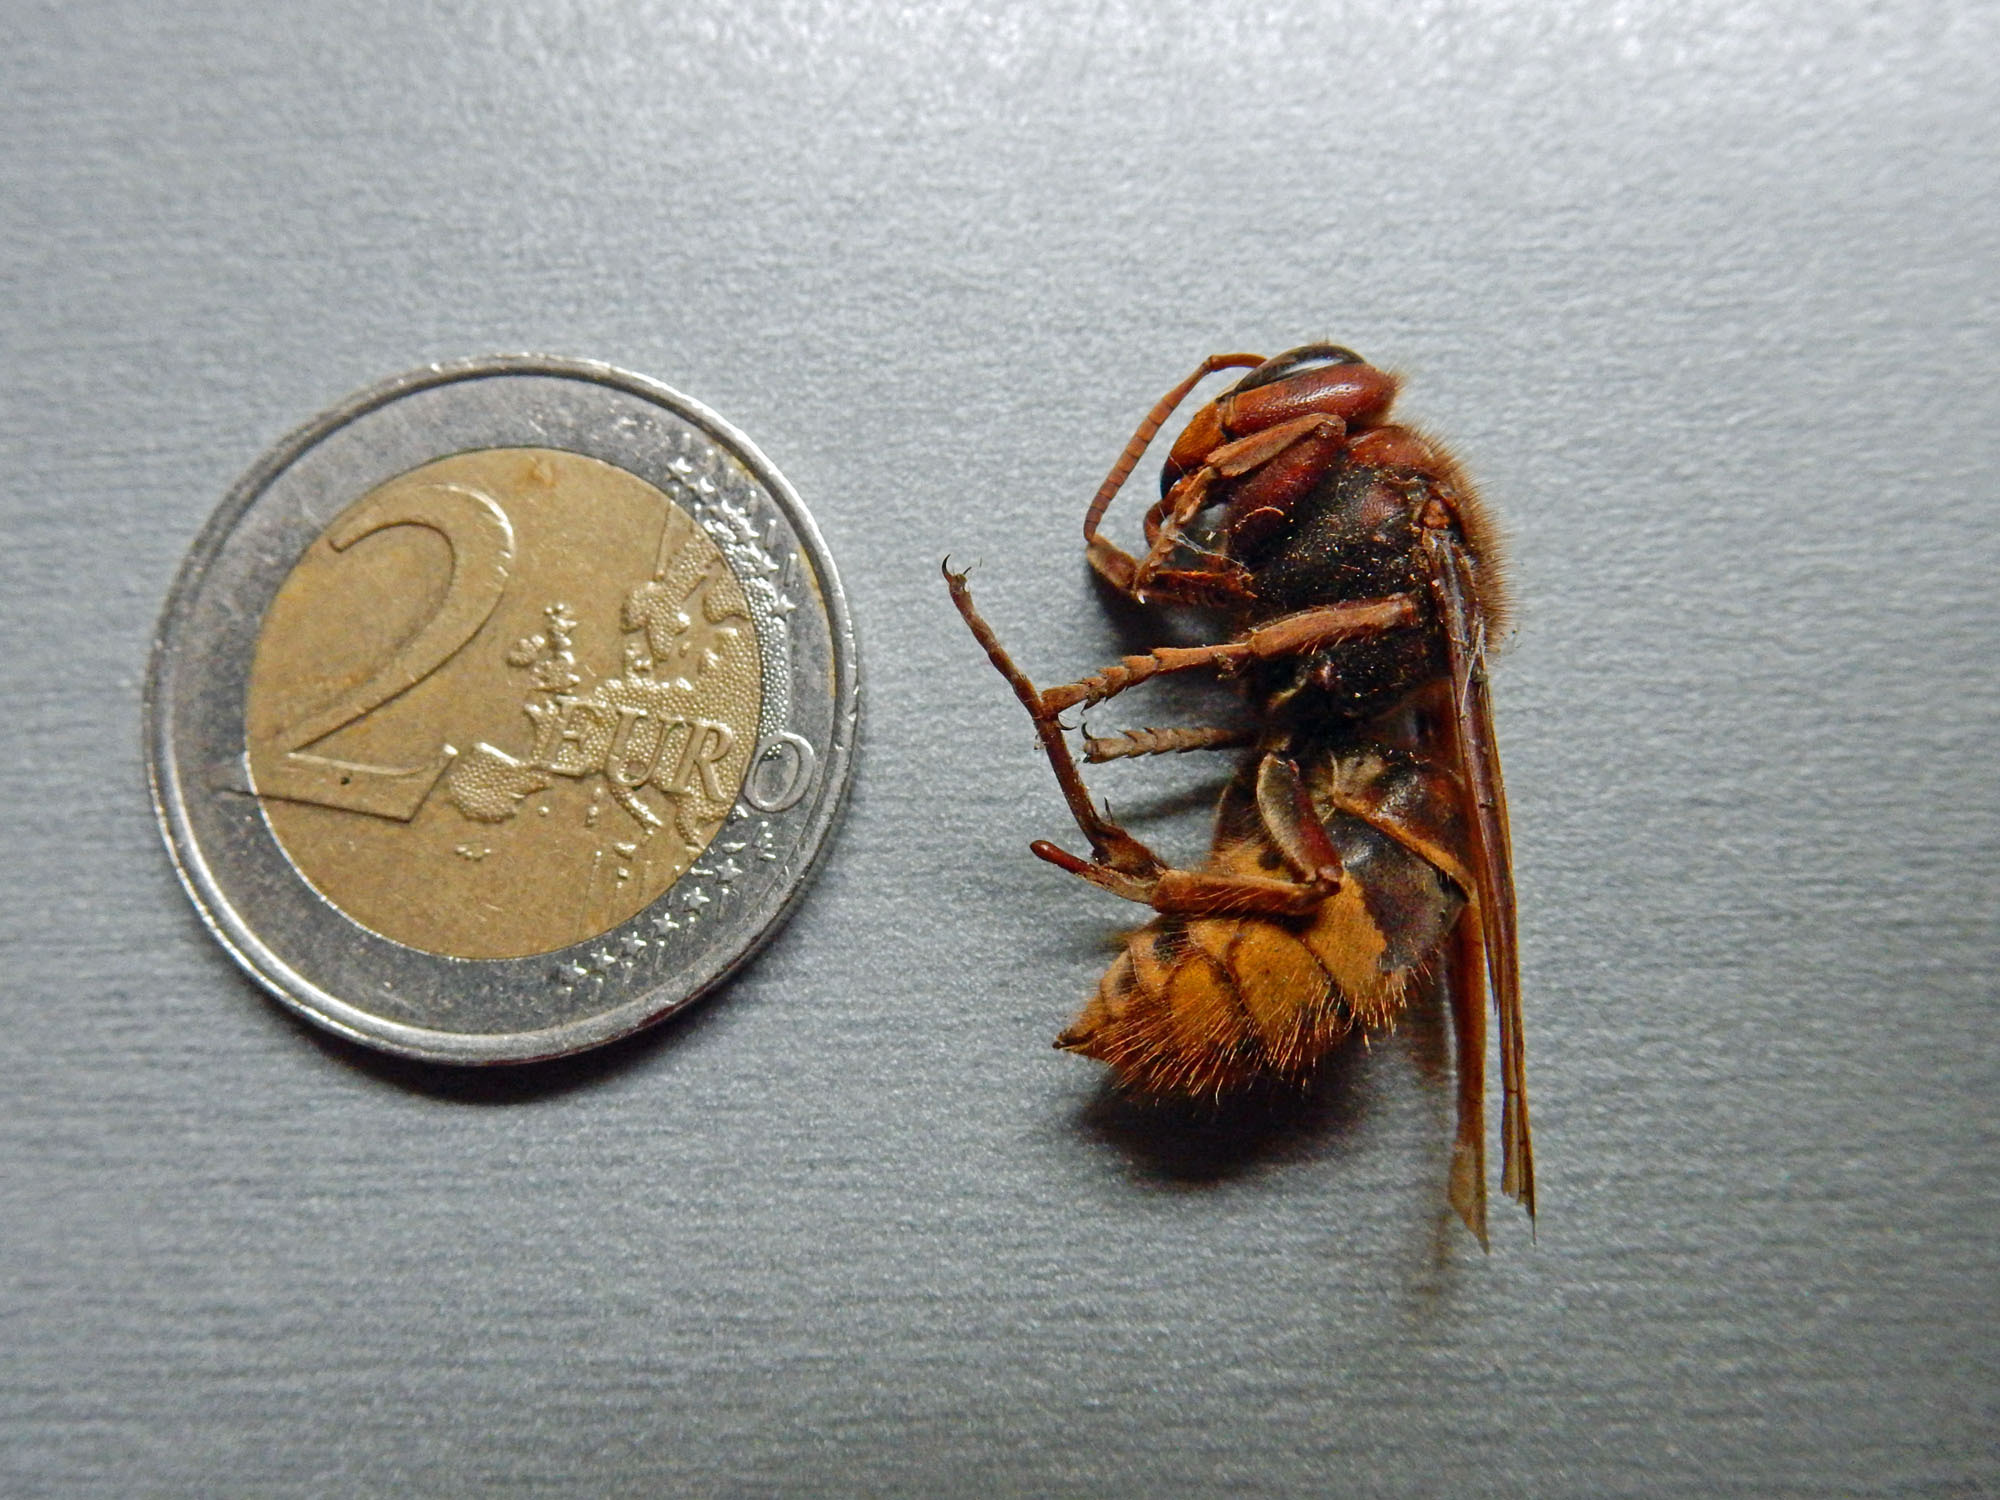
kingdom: Animalia
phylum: Arthropoda
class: Insecta
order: Hymenoptera
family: Vespidae
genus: Vespa
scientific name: Vespa crabro
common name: Hornet
